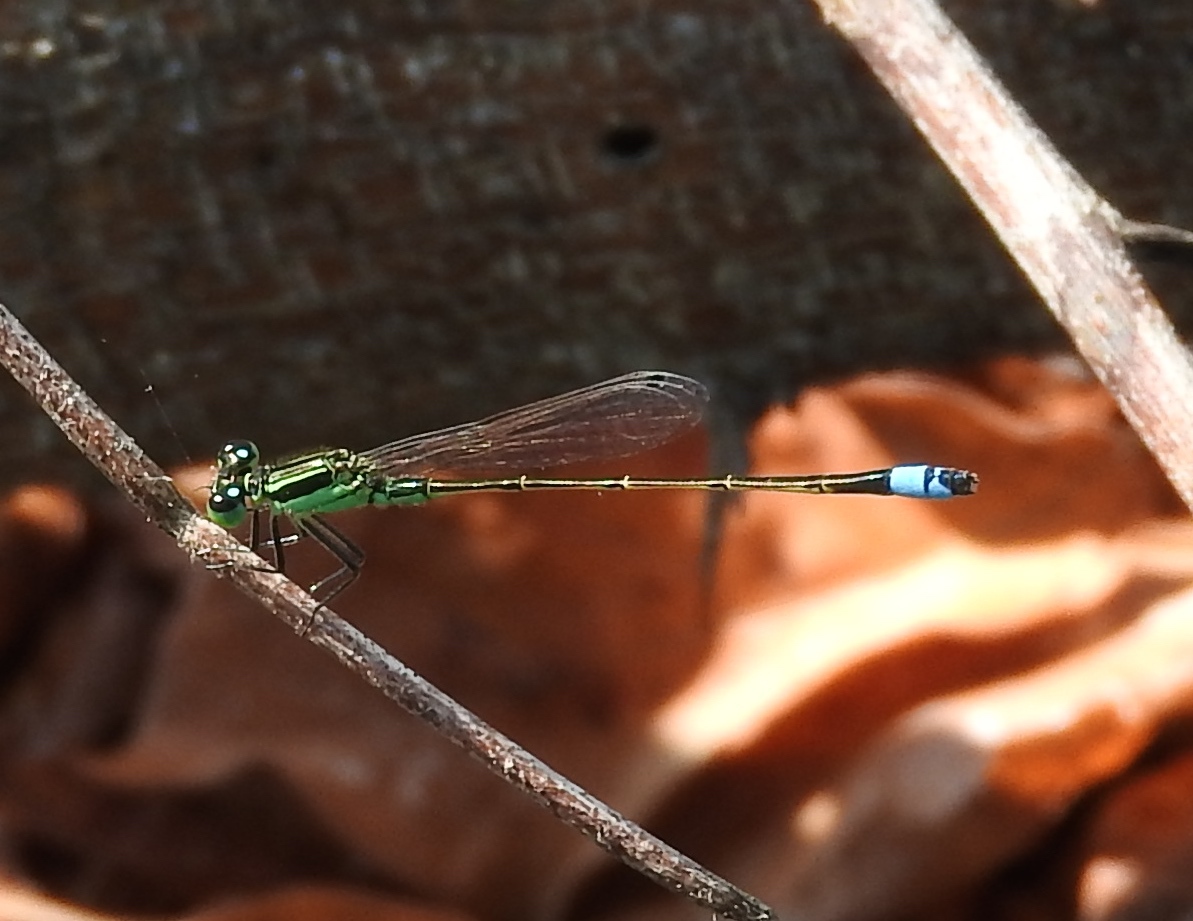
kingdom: Animalia
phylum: Arthropoda
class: Insecta
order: Odonata
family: Coenagrionidae
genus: Ischnura
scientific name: Ischnura ramburii
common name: Rambur's forktail
